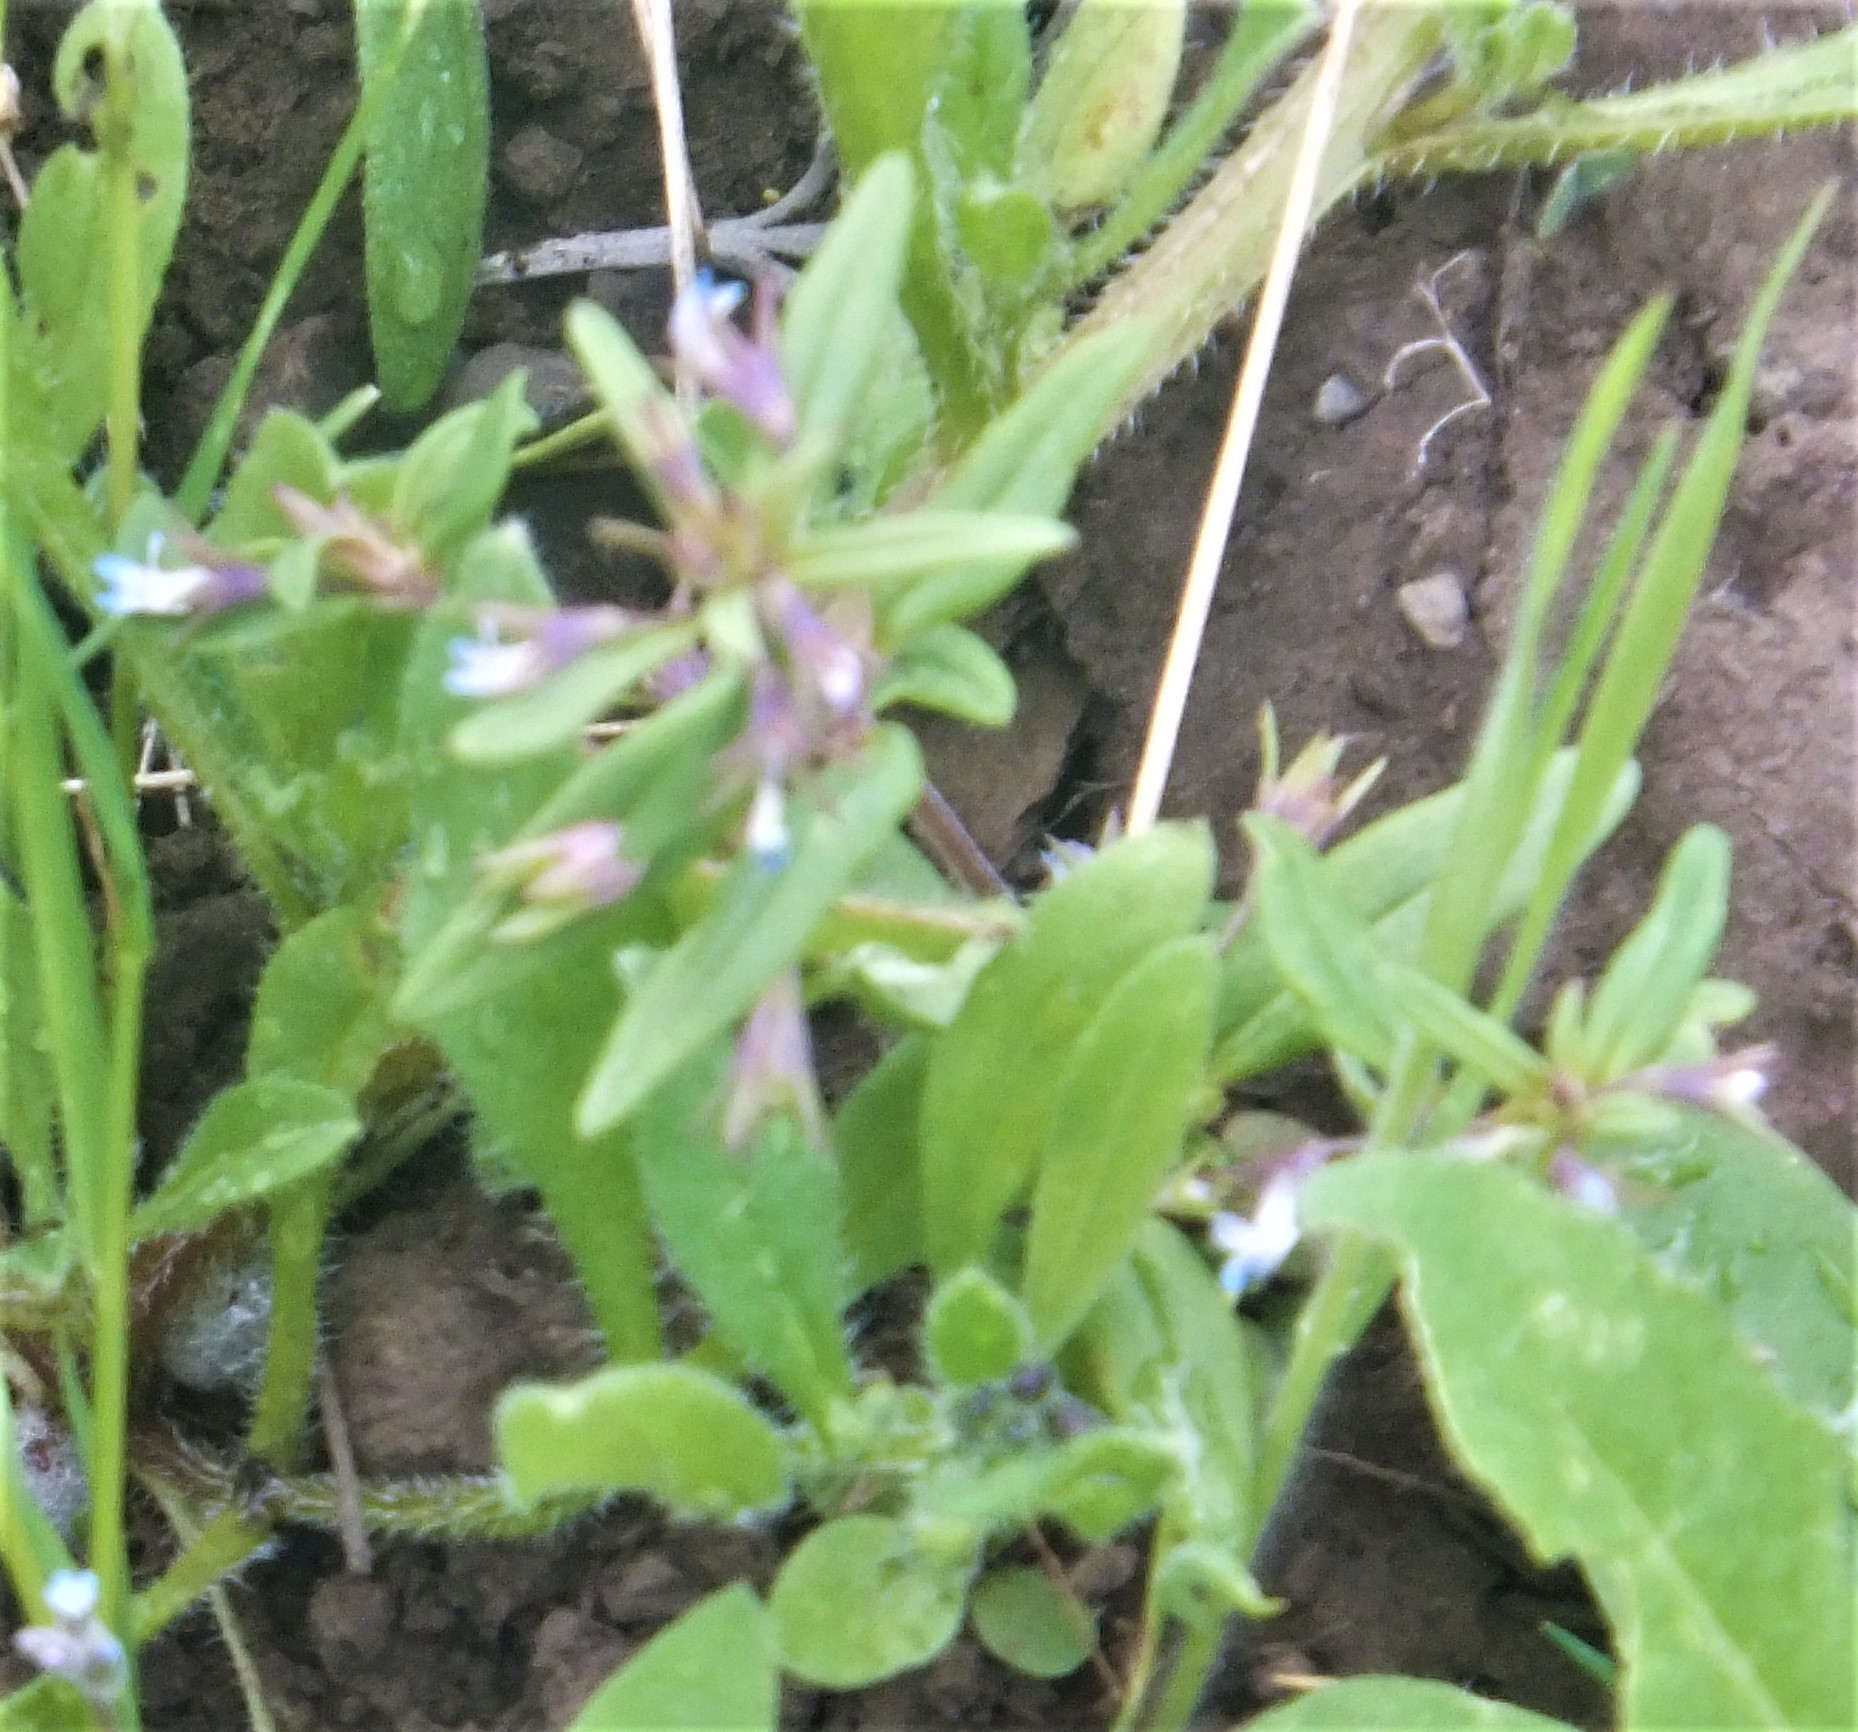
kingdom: Plantae
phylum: Tracheophyta
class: Magnoliopsida
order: Lamiales
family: Plantaginaceae
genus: Collinsia
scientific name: Collinsia parviflora
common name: Blue-lips
